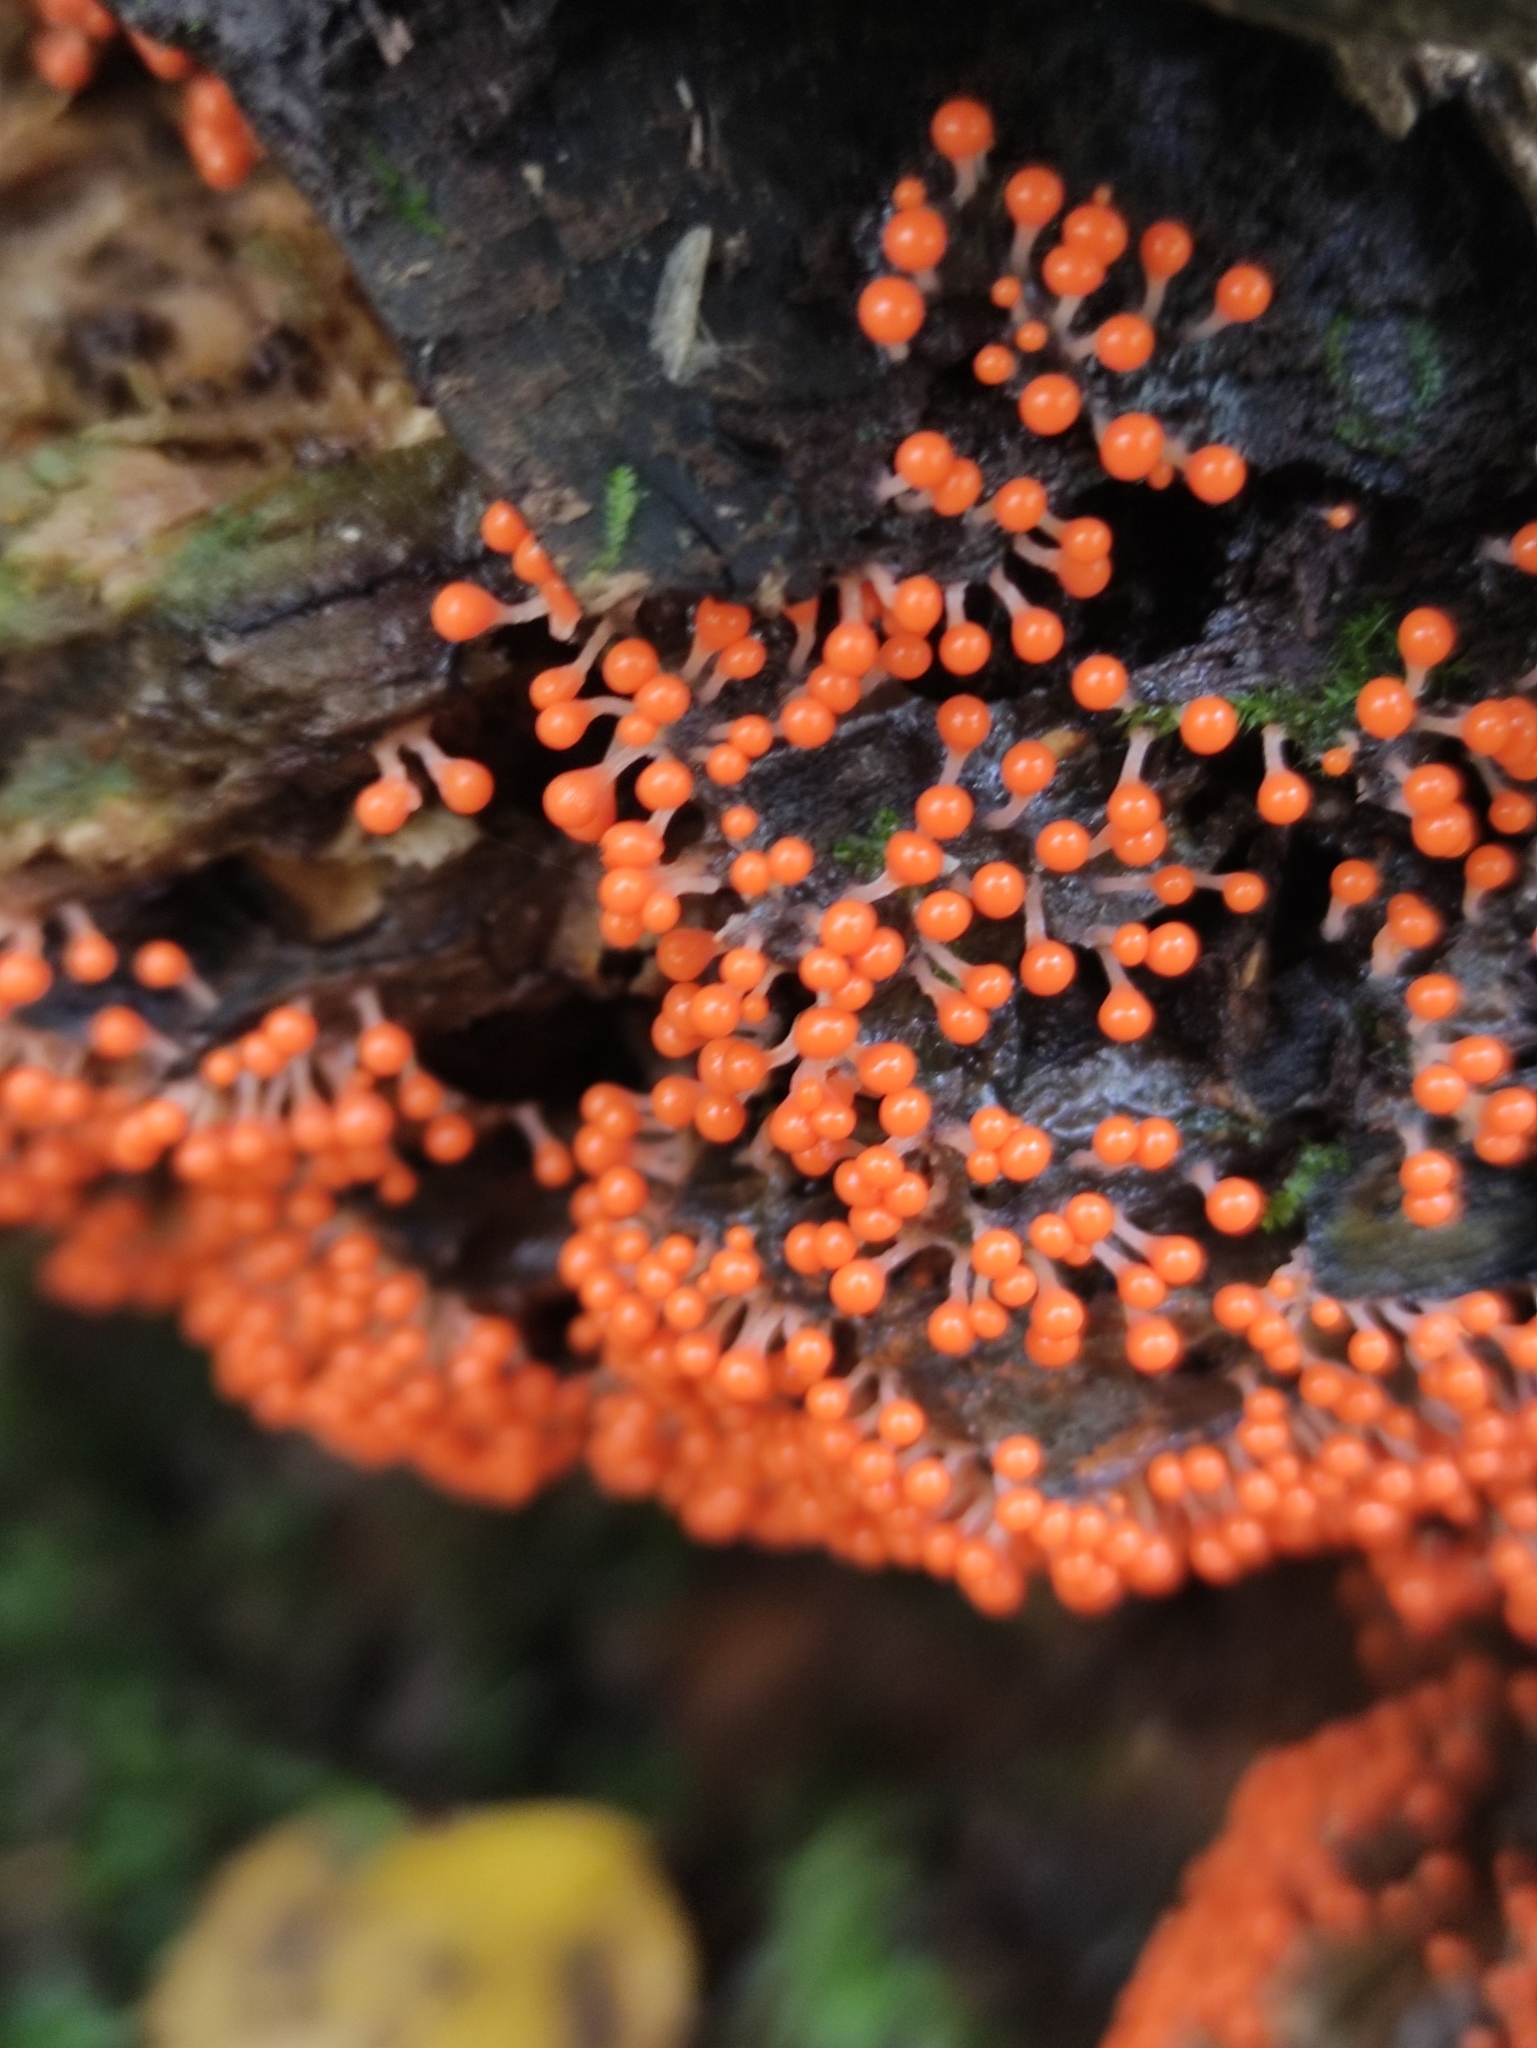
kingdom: Protozoa
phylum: Mycetozoa
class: Myxomycetes
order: Trichiales
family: Arcyriaceae
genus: Hemitrichia
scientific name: Hemitrichia decipiens
